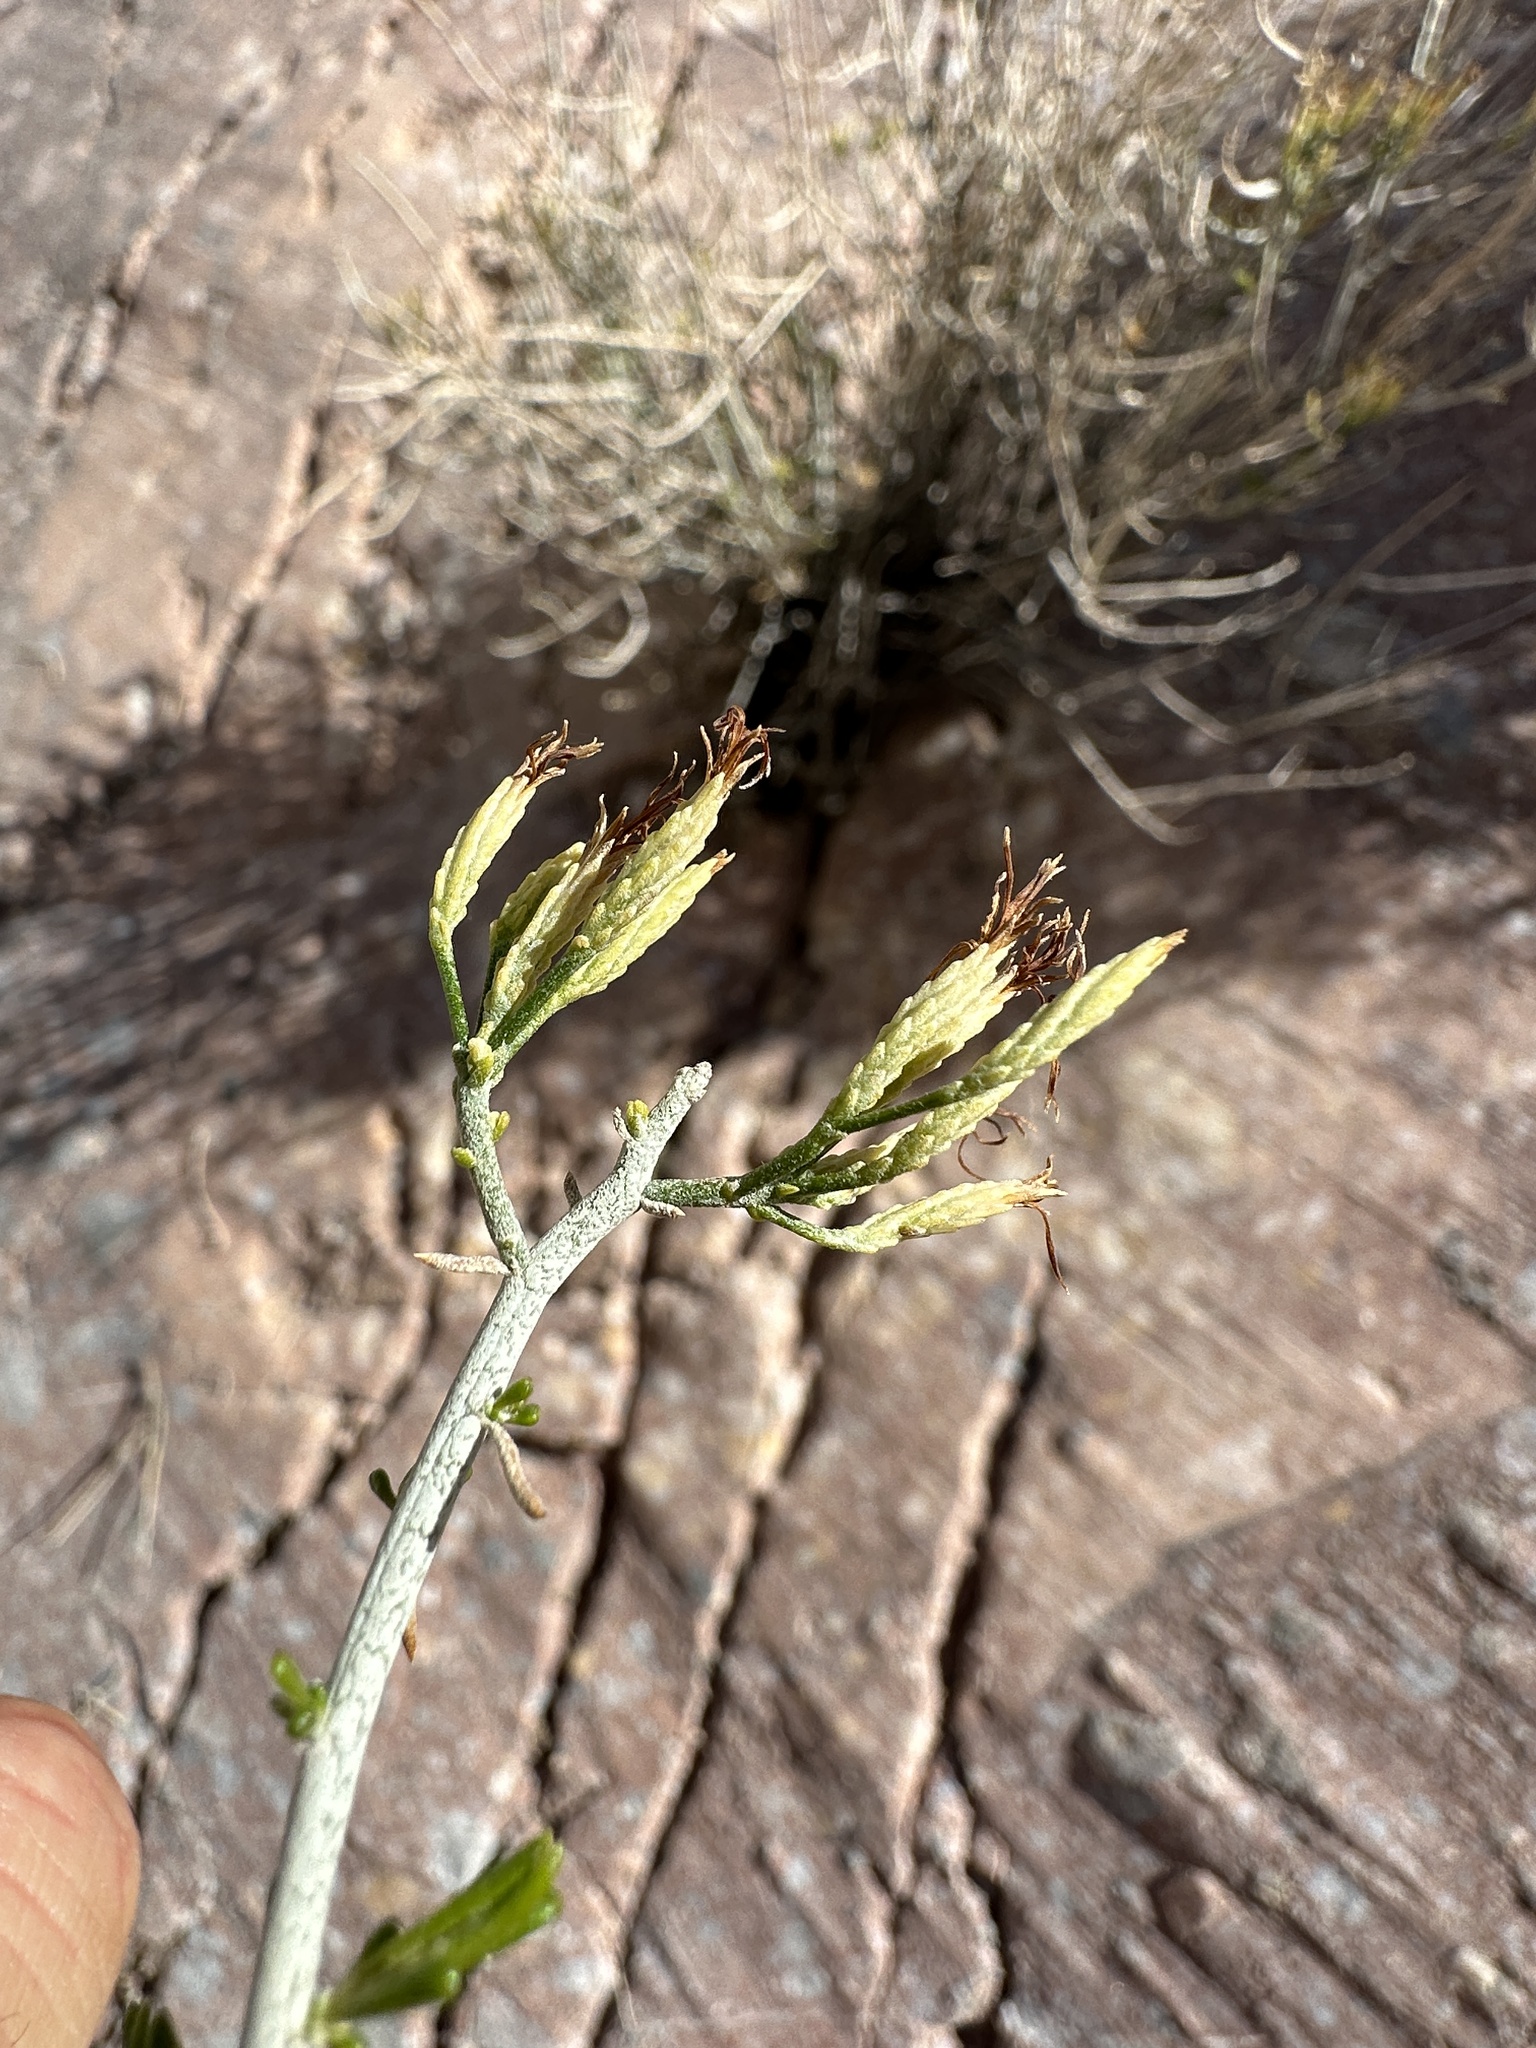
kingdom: Plantae
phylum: Tracheophyta
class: Magnoliopsida
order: Asterales
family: Asteraceae
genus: Ericameria
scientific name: Ericameria nauseosa
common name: Rubber rabbitbrush
